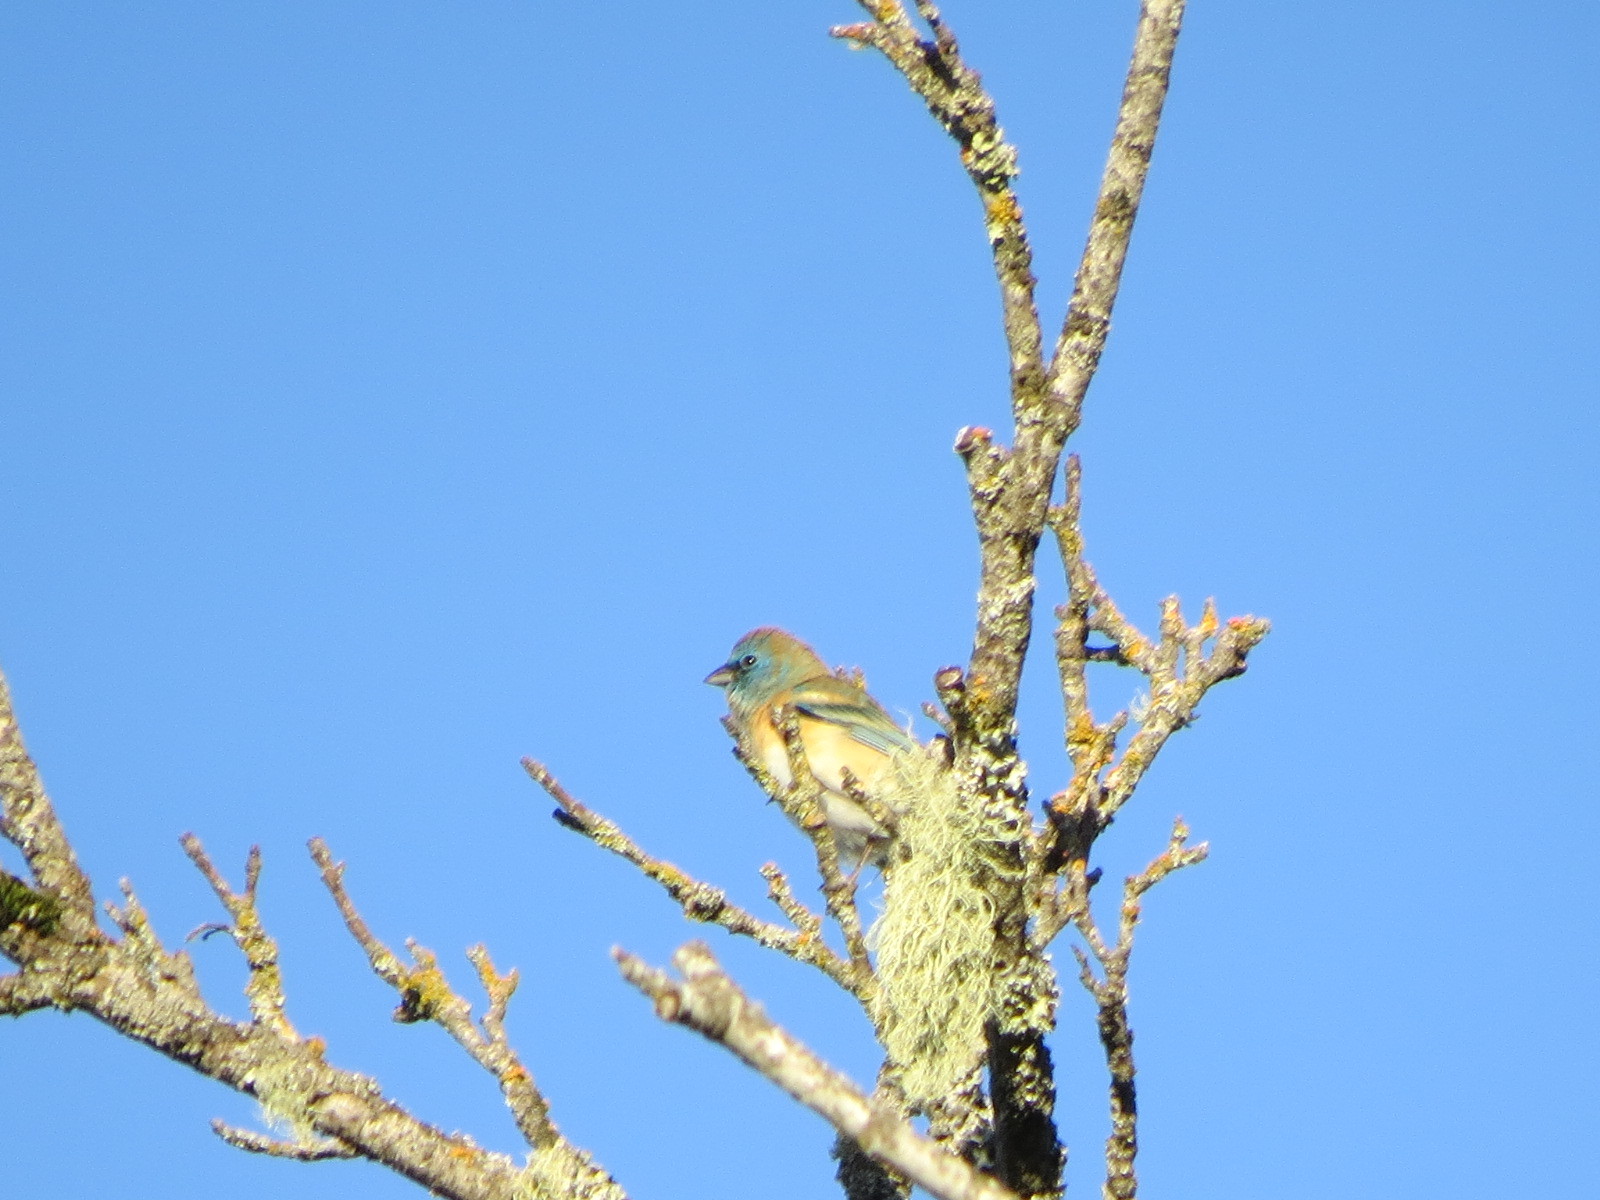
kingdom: Animalia
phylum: Chordata
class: Aves
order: Passeriformes
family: Cardinalidae
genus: Passerina
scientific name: Passerina amoena
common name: Lazuli bunting
